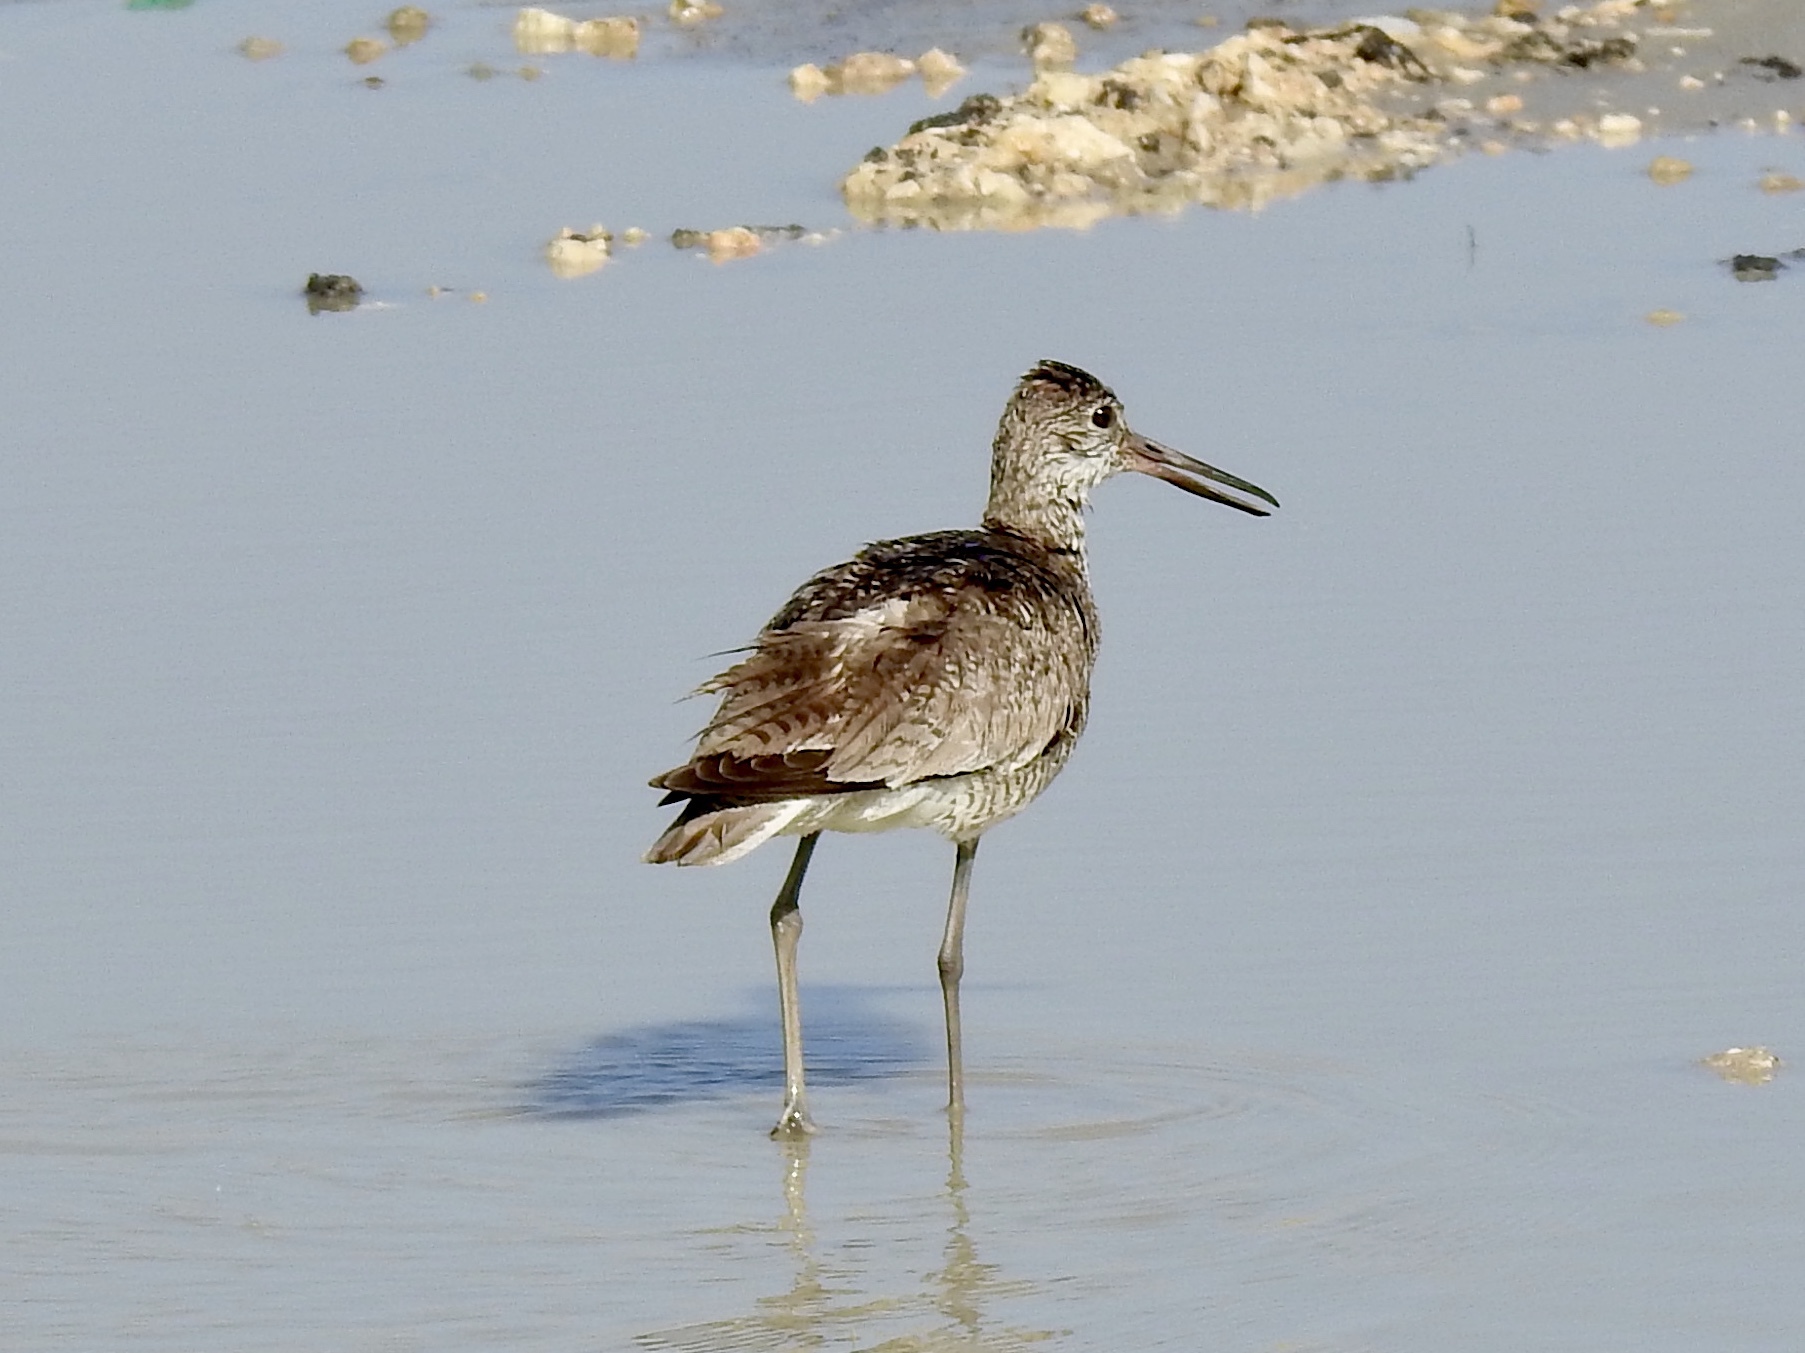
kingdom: Animalia
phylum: Chordata
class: Aves
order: Charadriiformes
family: Scolopacidae
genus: Tringa
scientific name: Tringa semipalmata
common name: Willet
